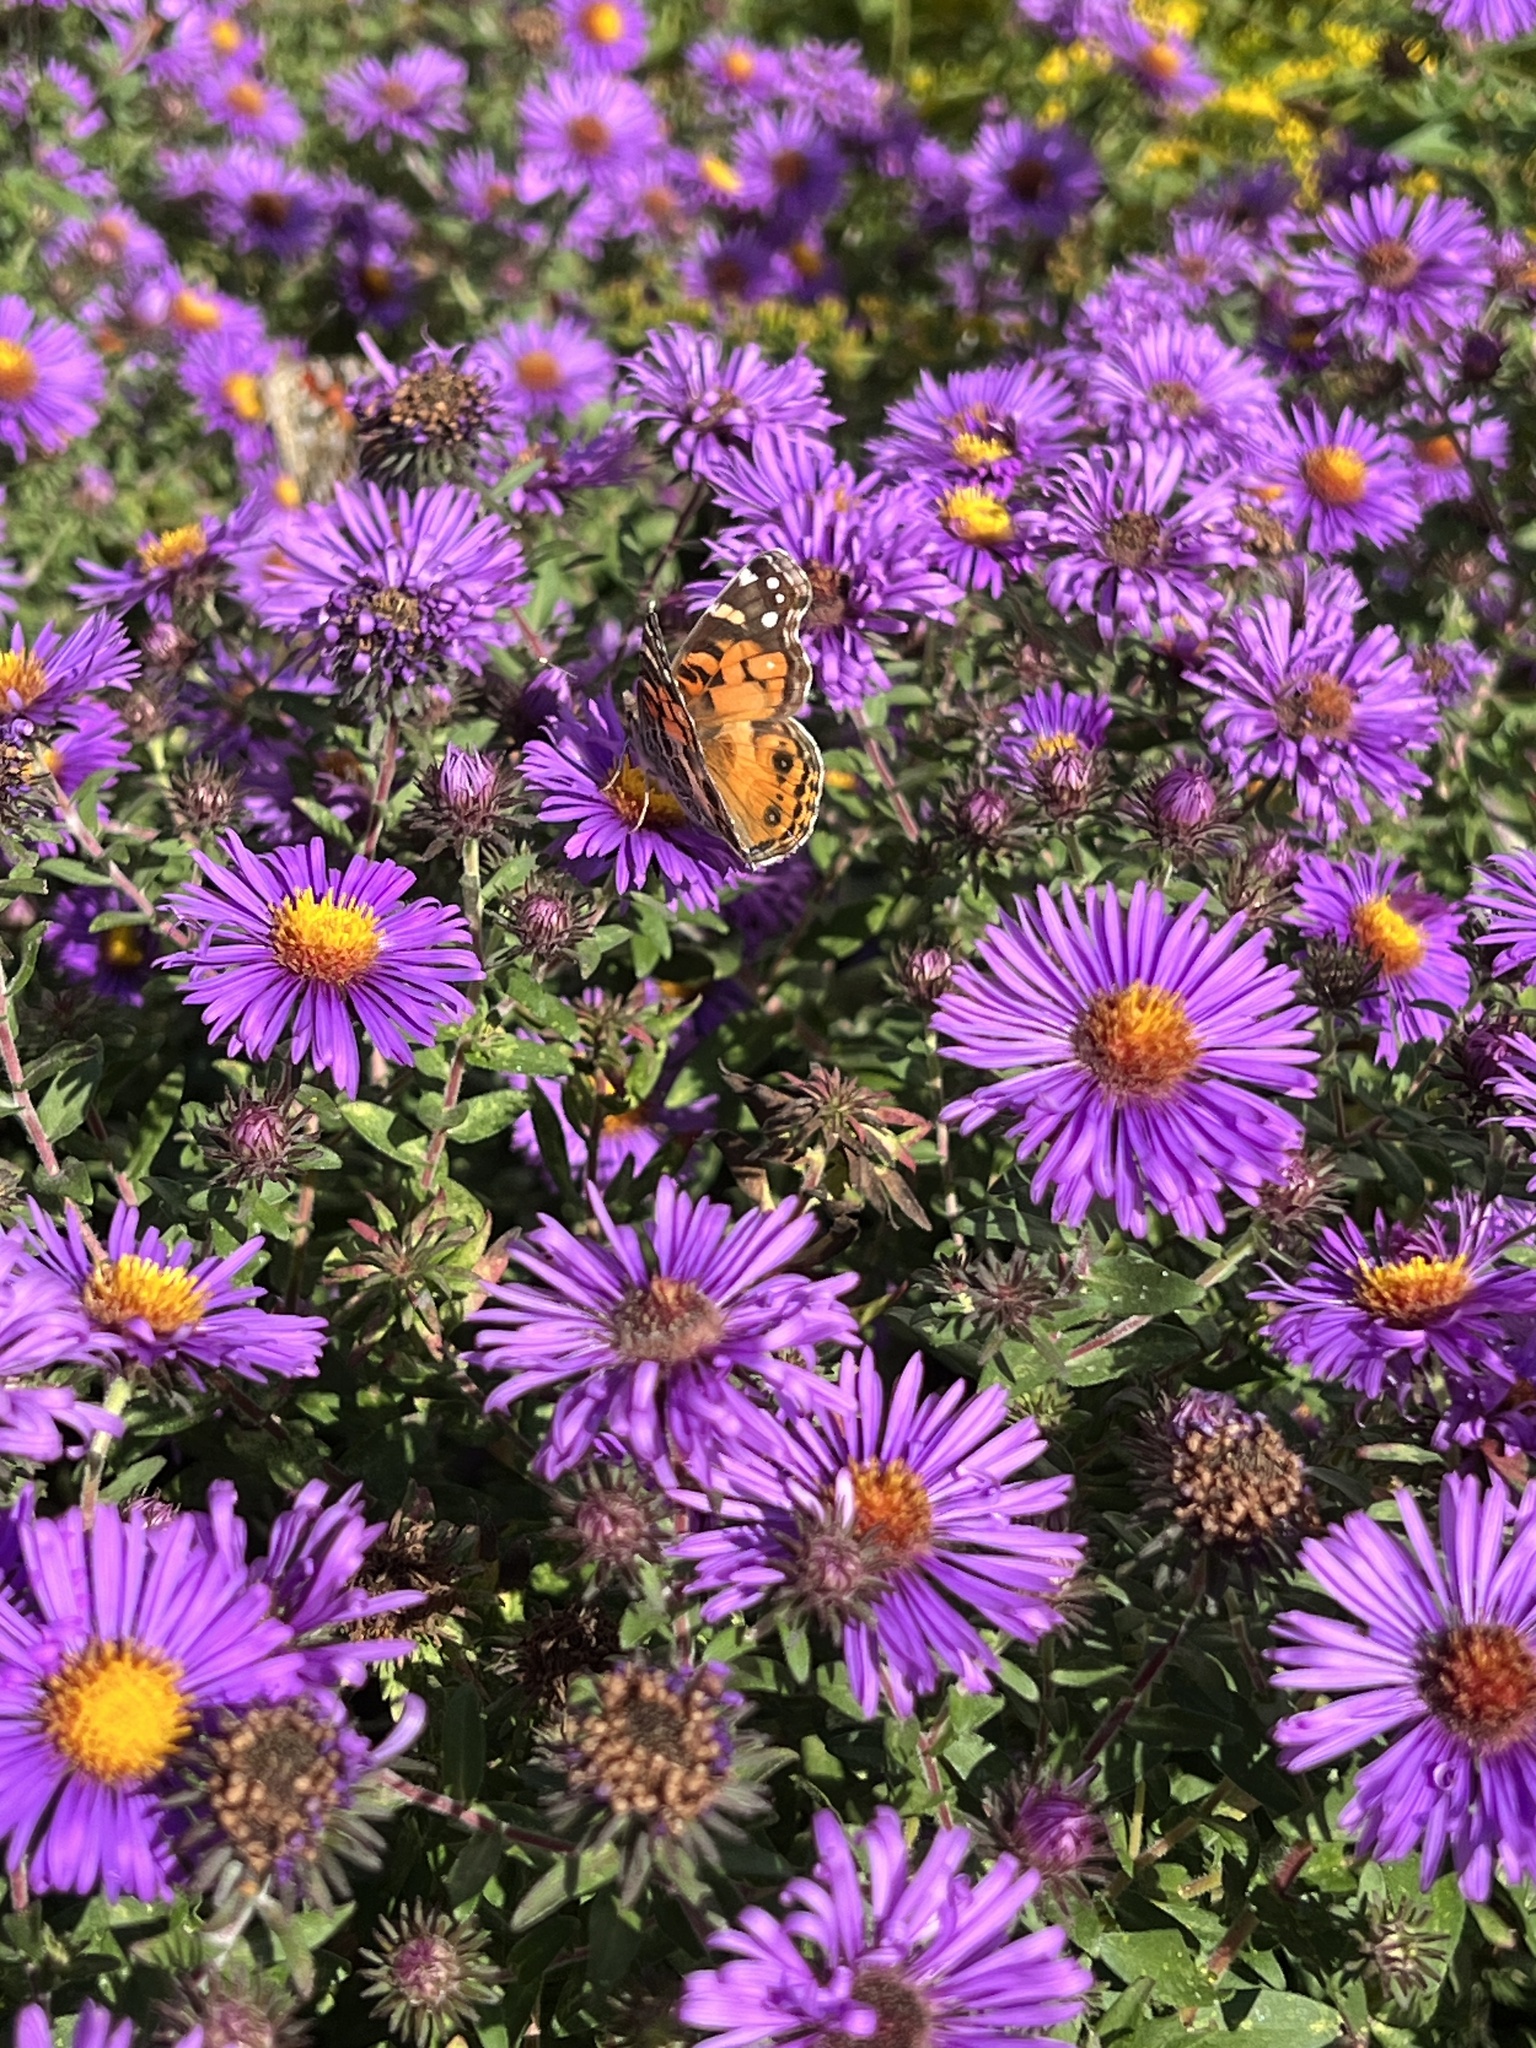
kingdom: Animalia
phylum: Arthropoda
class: Insecta
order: Lepidoptera
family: Nymphalidae
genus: Vanessa
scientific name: Vanessa cardui
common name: Painted lady
